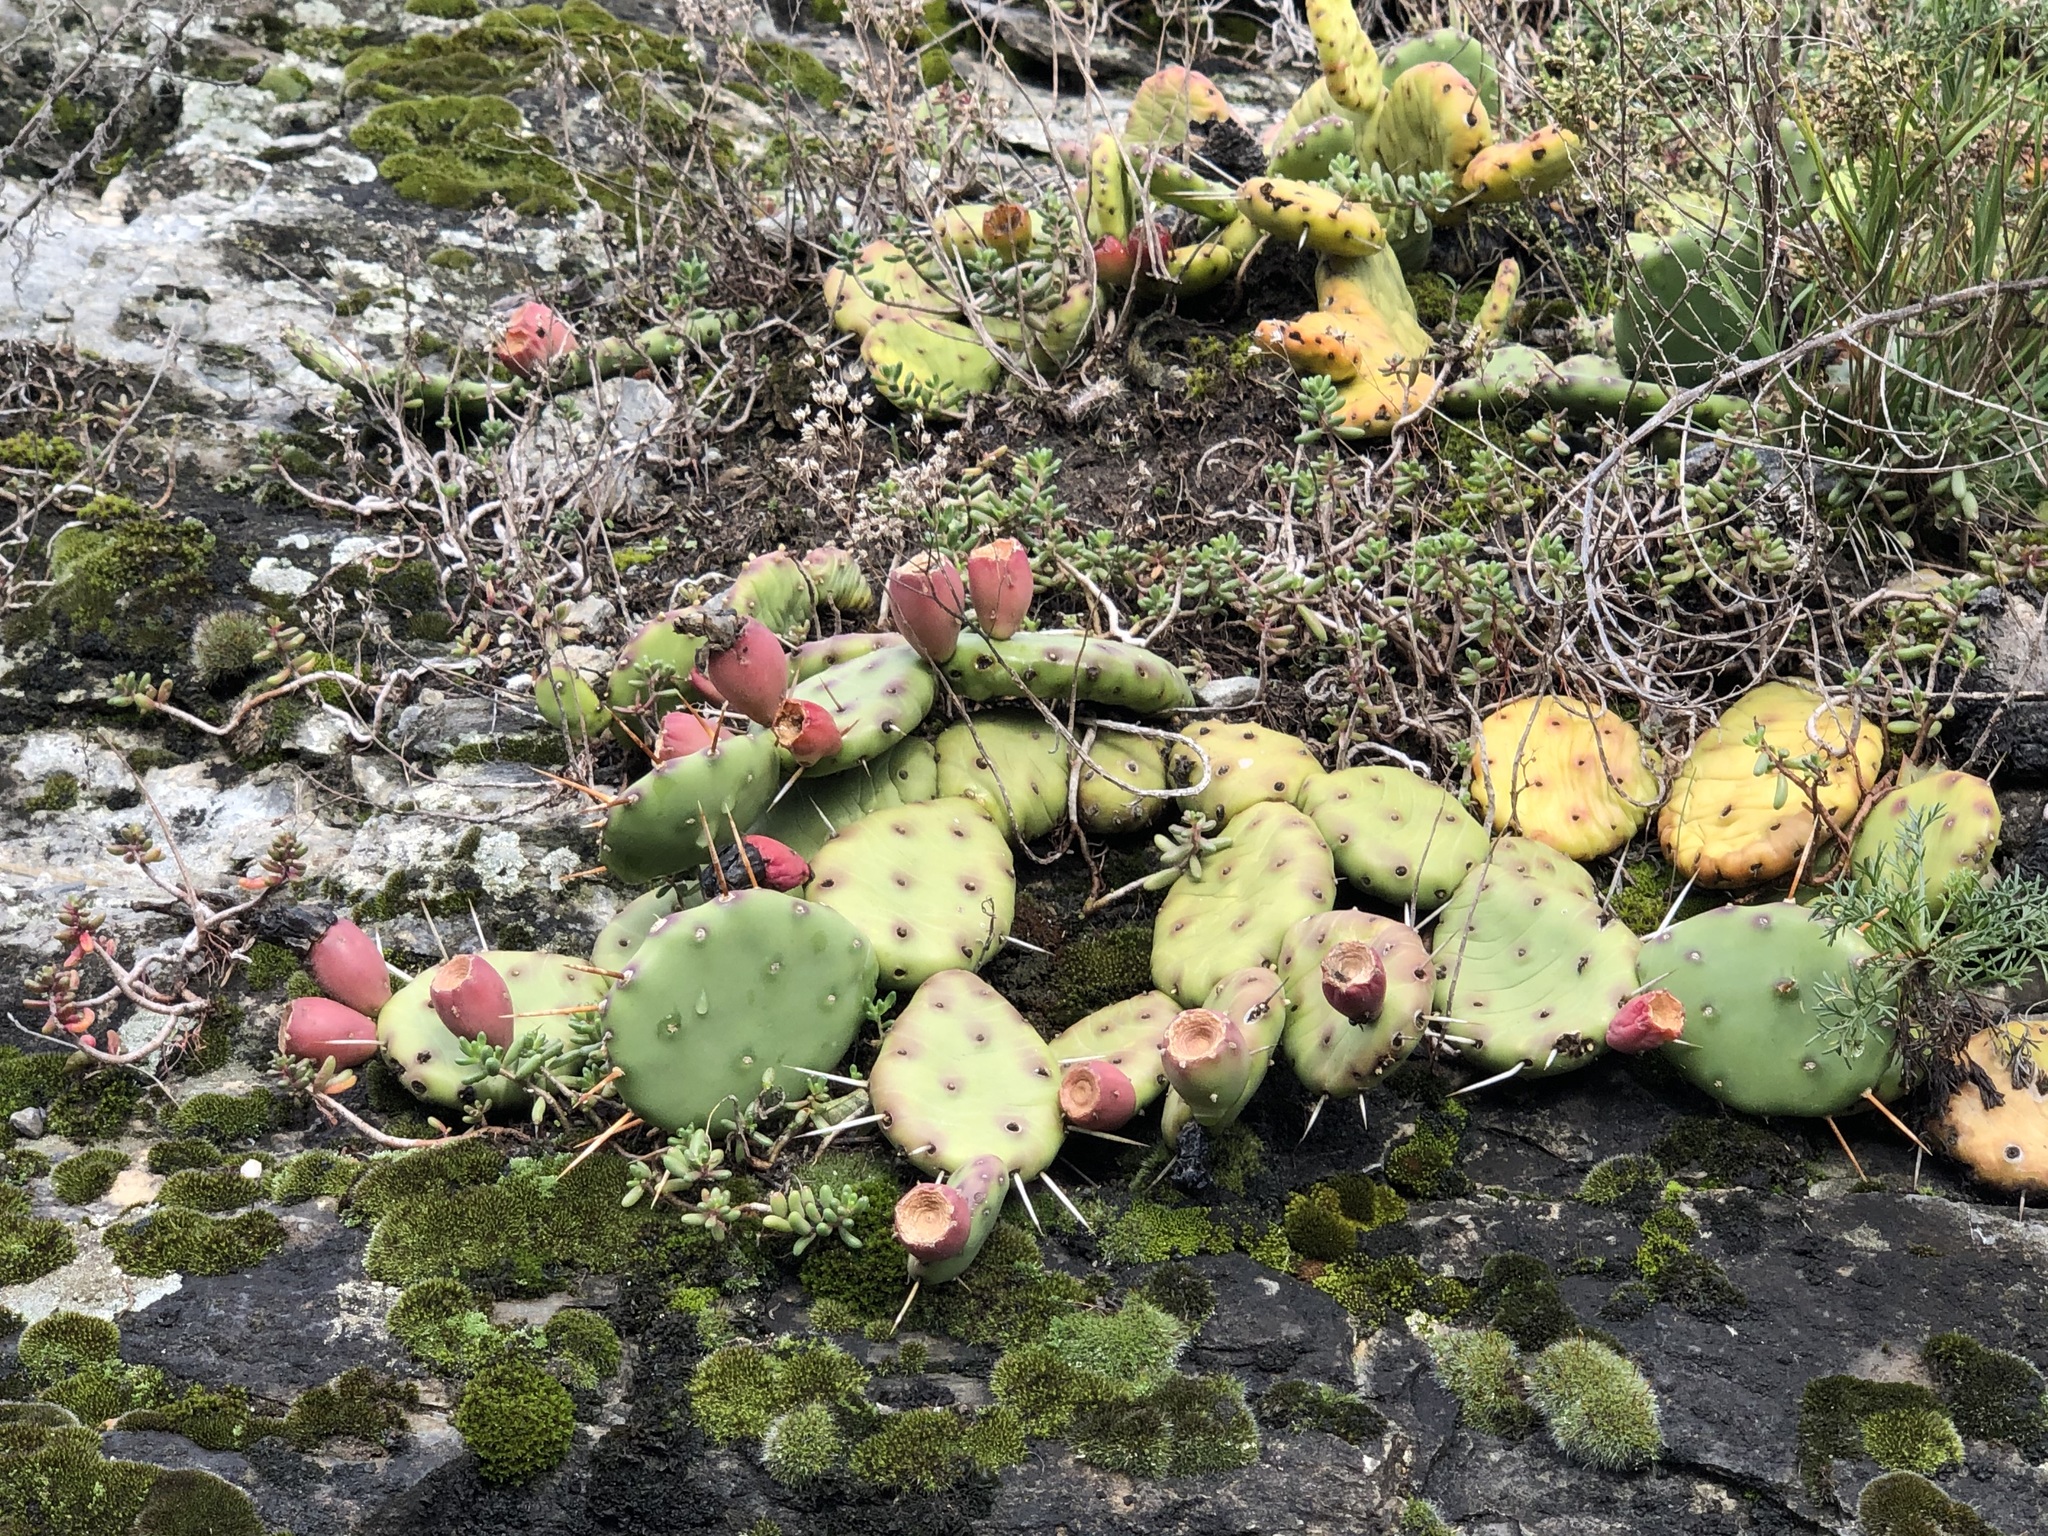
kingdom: Plantae
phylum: Tracheophyta
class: Magnoliopsida
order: Caryophyllales
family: Cactaceae
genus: Opuntia
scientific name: Opuntia humifusa
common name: Eastern prickly-pear
